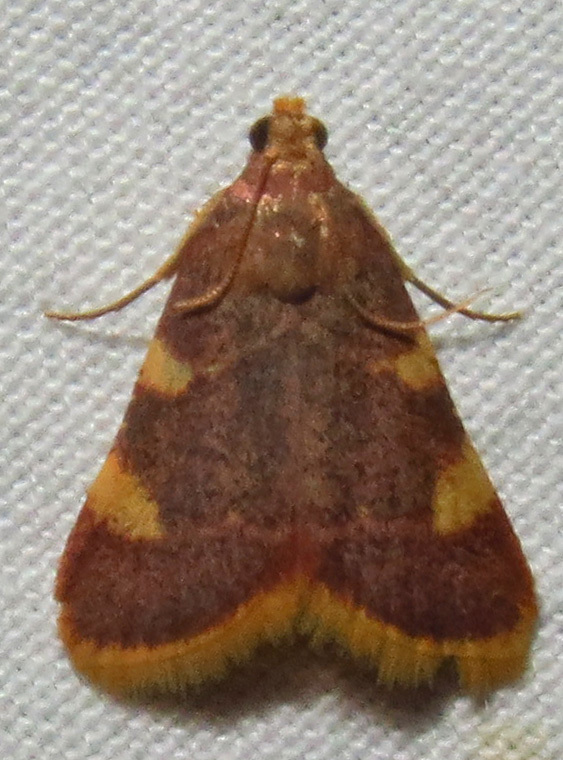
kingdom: Animalia
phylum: Arthropoda
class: Insecta
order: Lepidoptera
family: Pyralidae
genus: Hypsopygia
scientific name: Hypsopygia costalis
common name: Gold triangle
